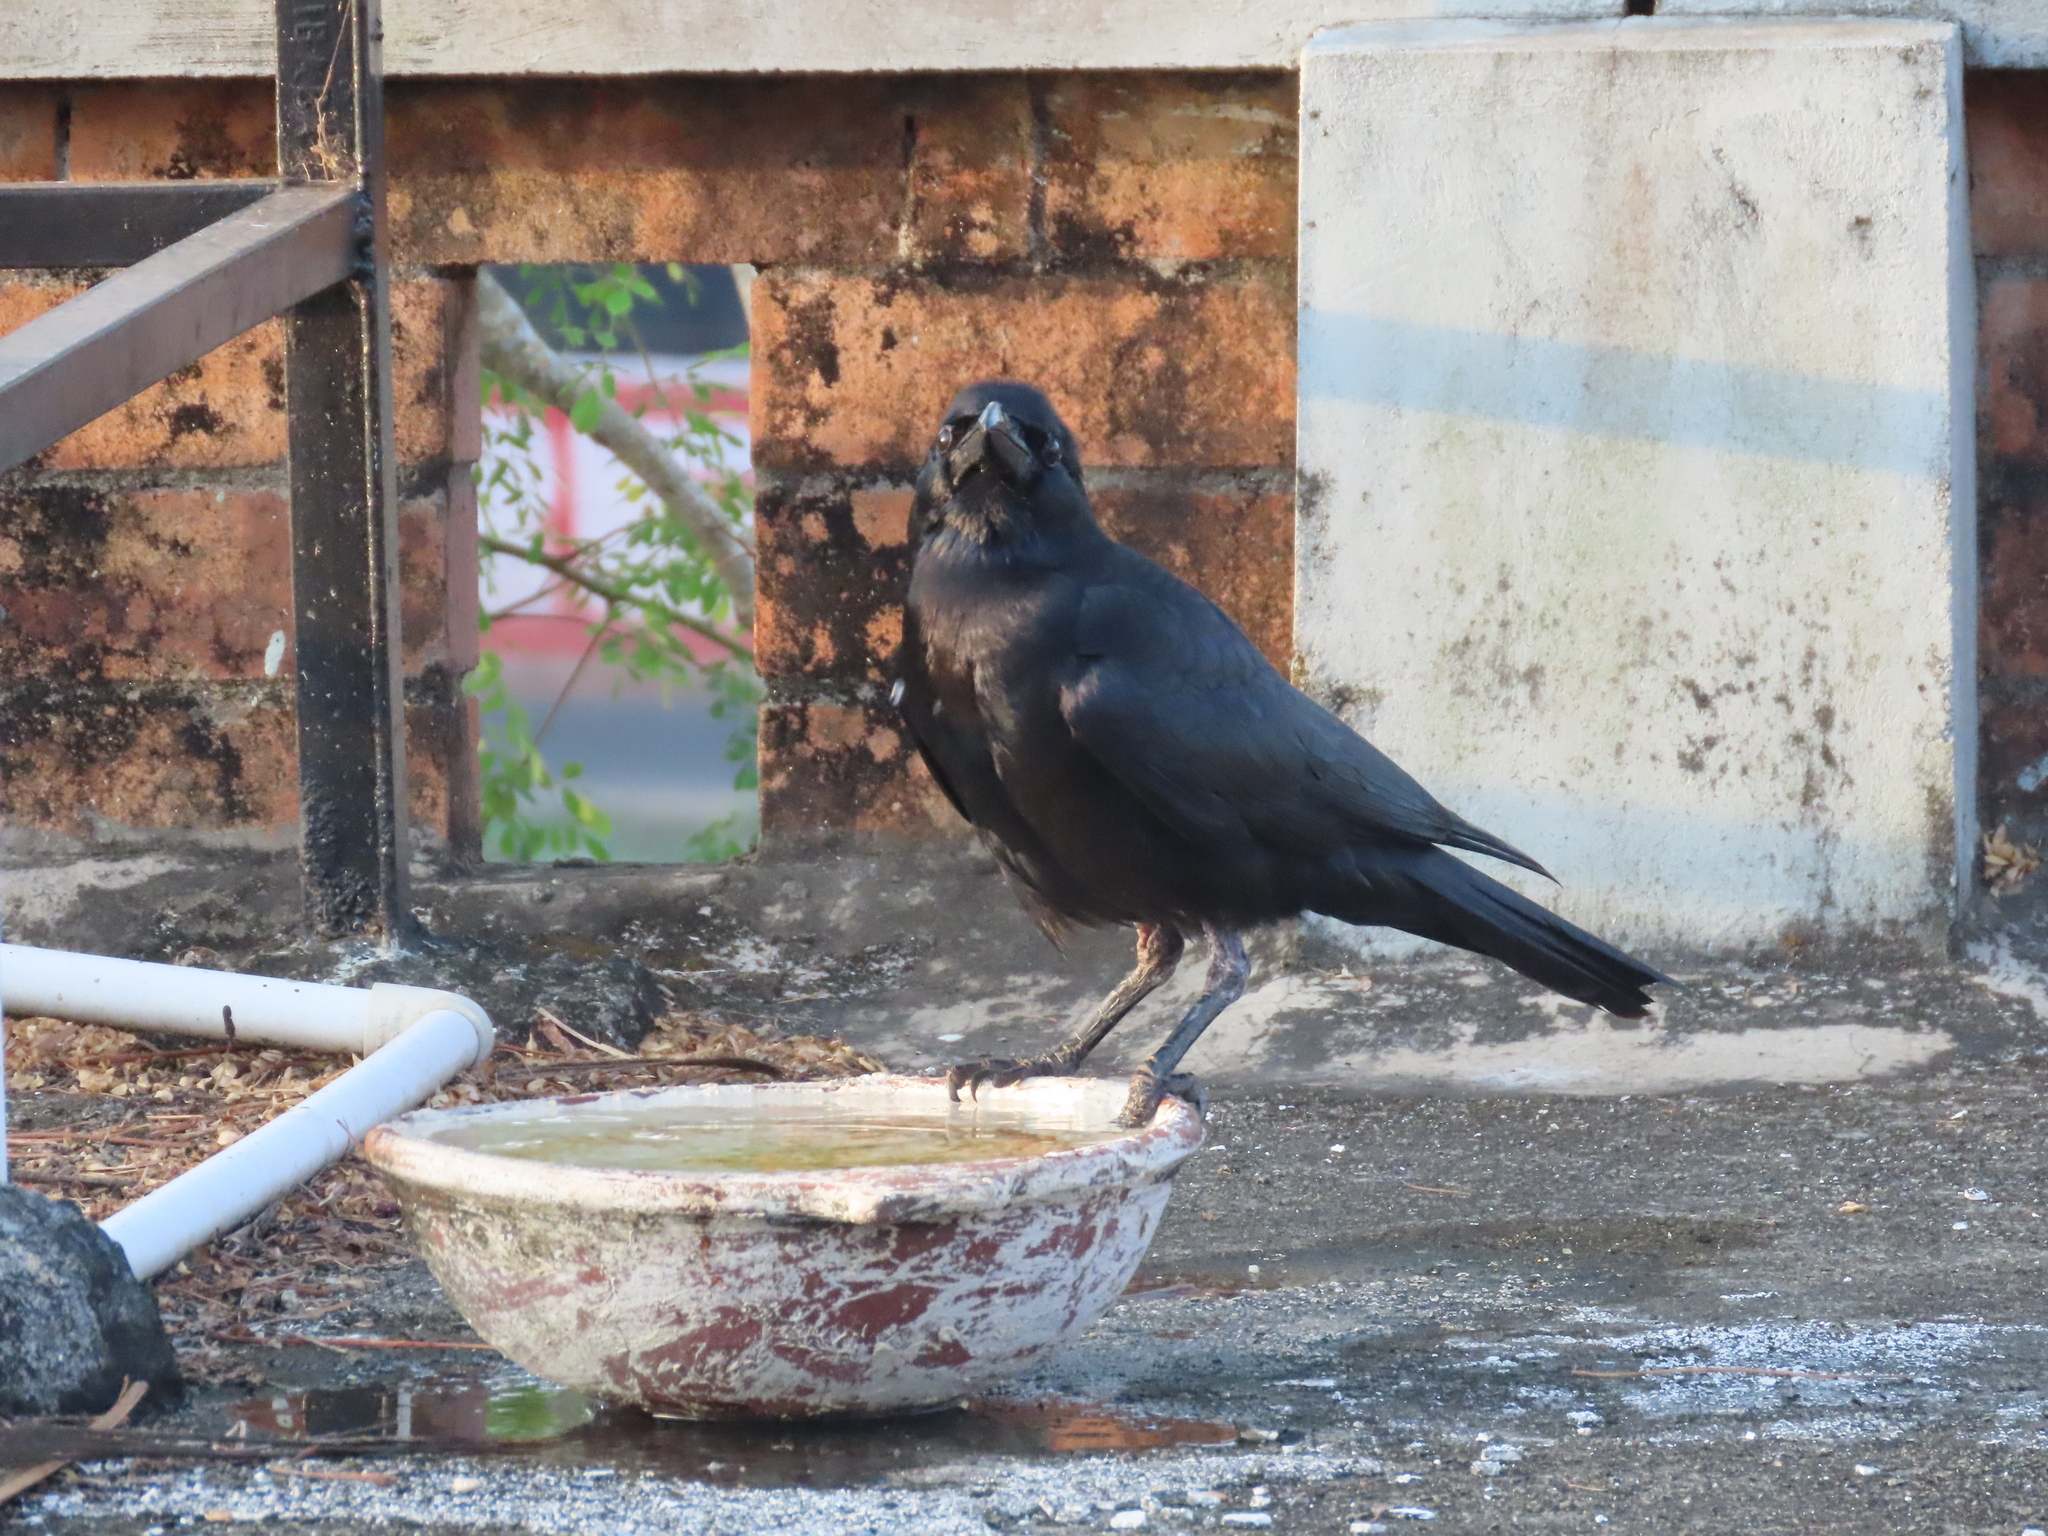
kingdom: Animalia
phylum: Chordata
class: Aves
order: Passeriformes
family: Corvidae
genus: Corvus
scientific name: Corvus macrorhynchos
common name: Large-billed crow
